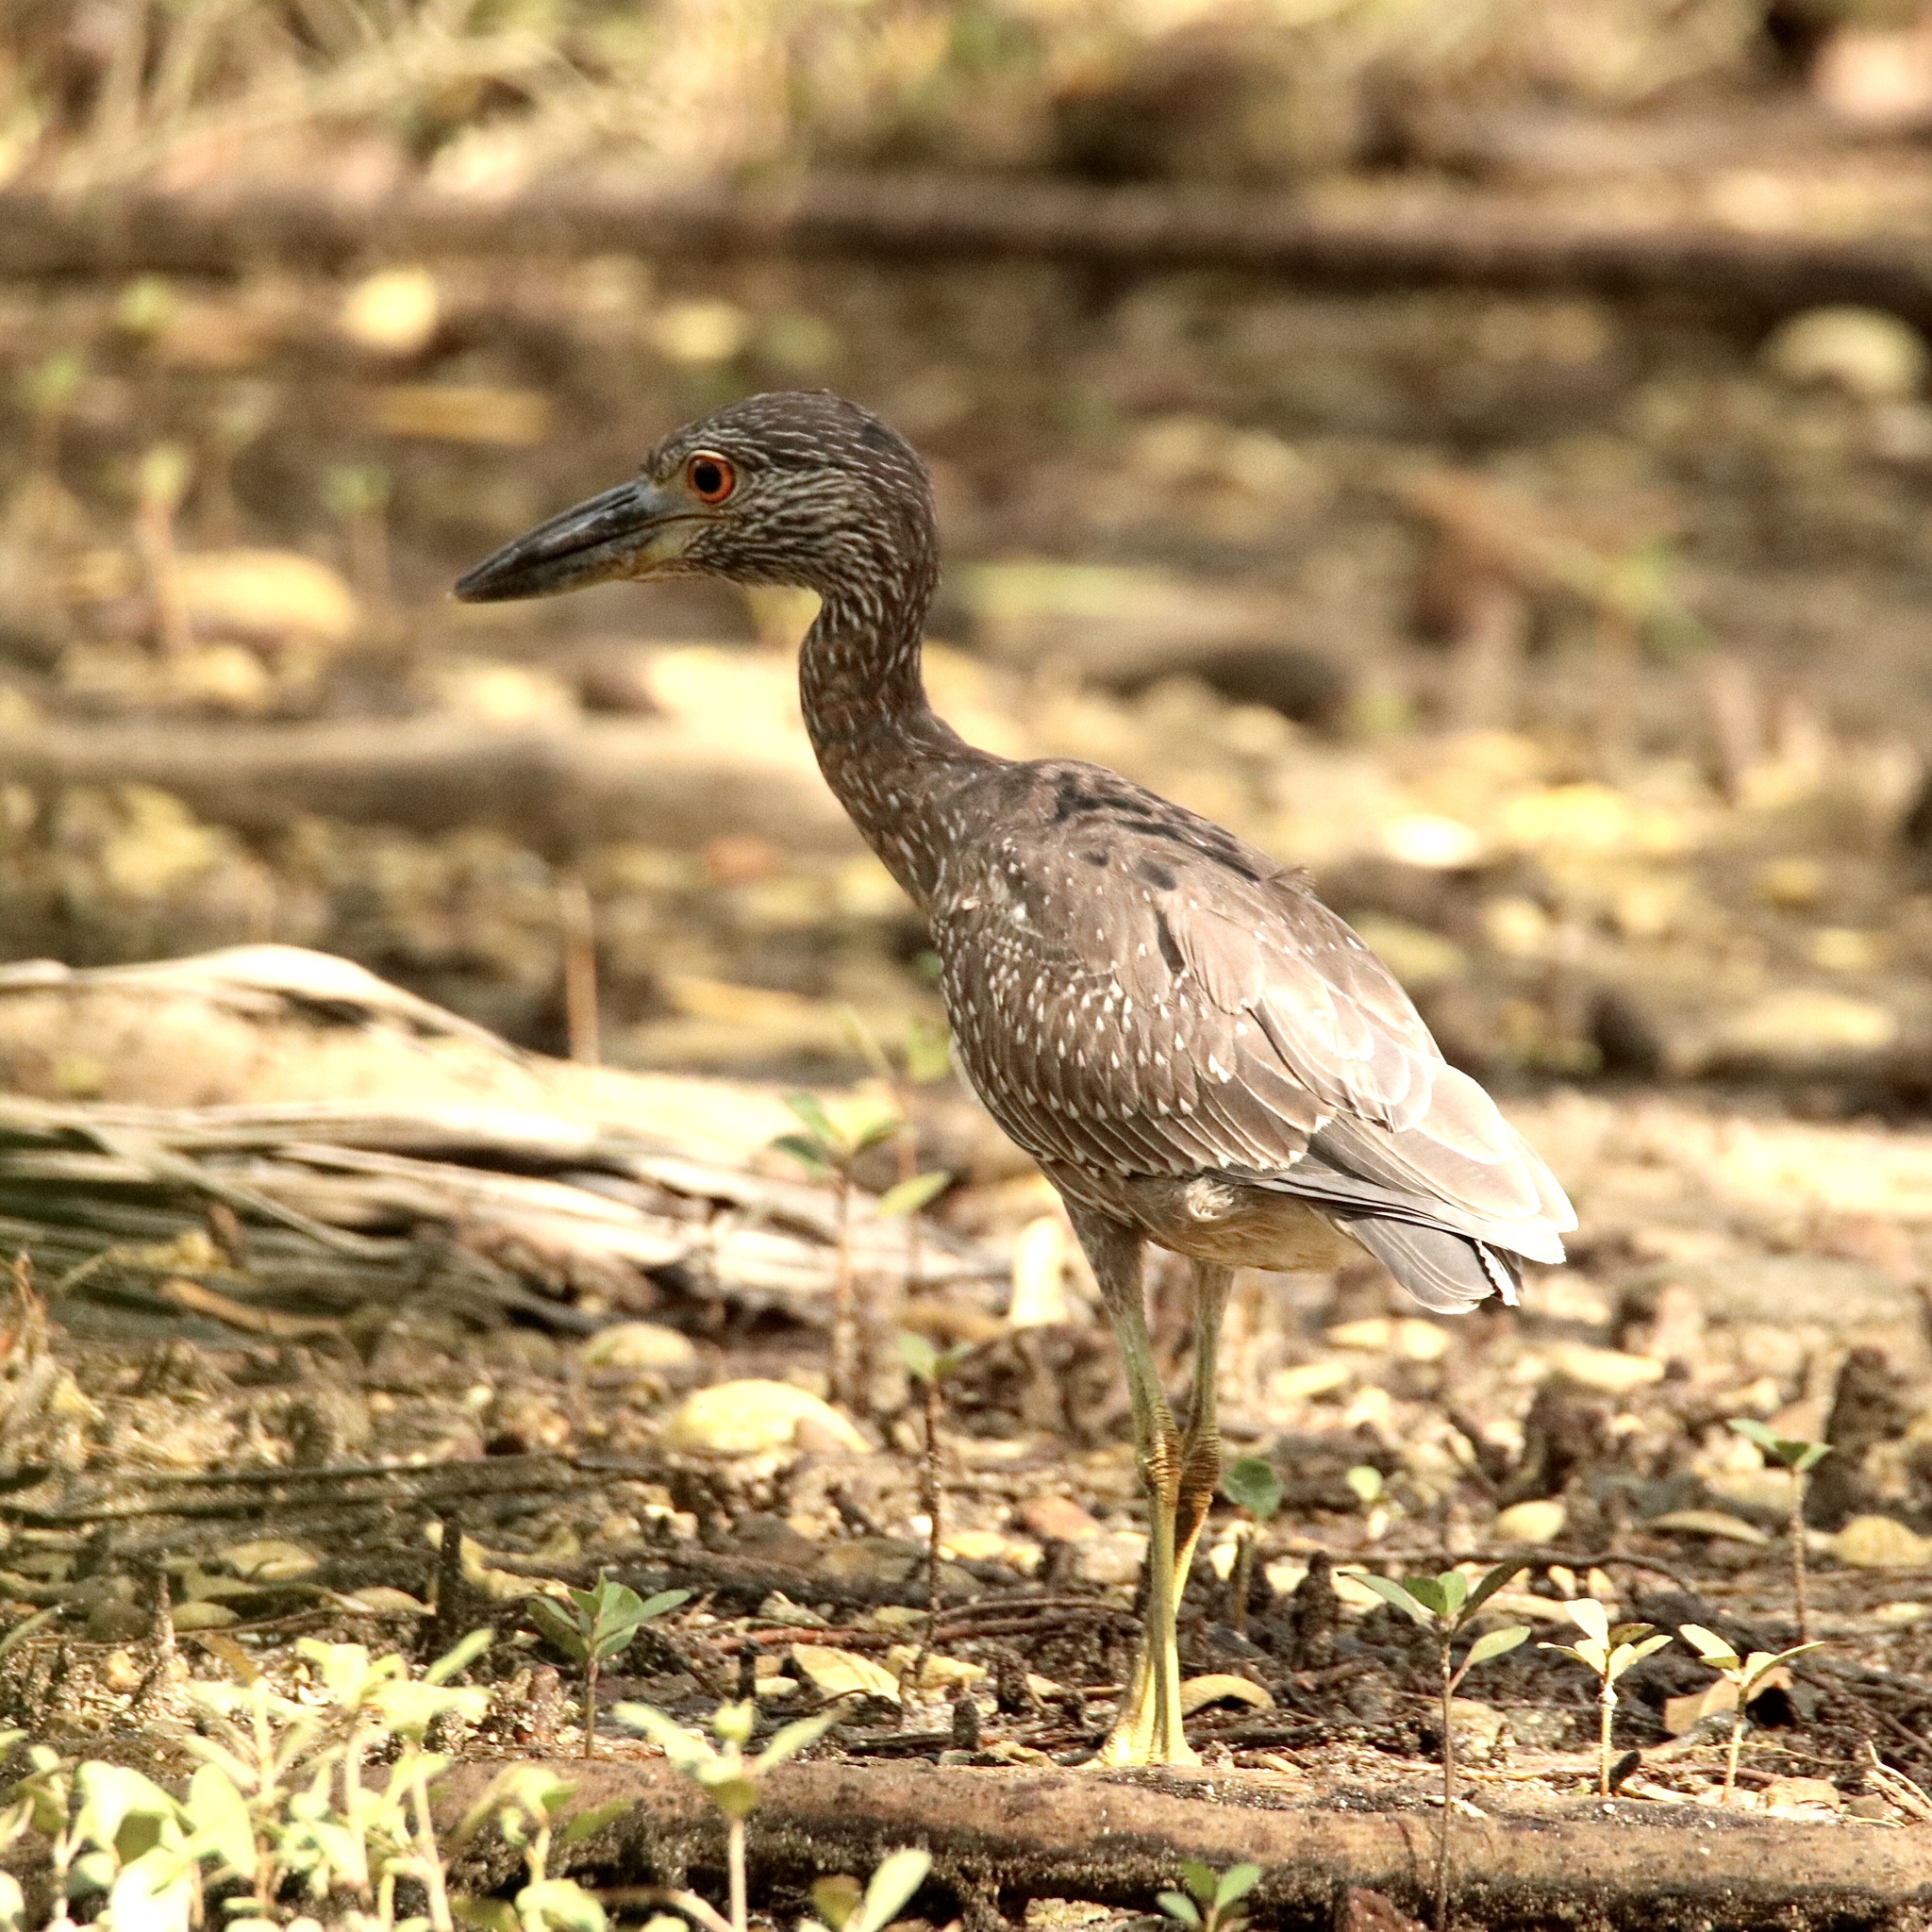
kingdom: Animalia
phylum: Chordata
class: Aves
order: Pelecaniformes
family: Ardeidae
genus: Nyctanassa
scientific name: Nyctanassa violacea
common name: Yellow-crowned night heron
